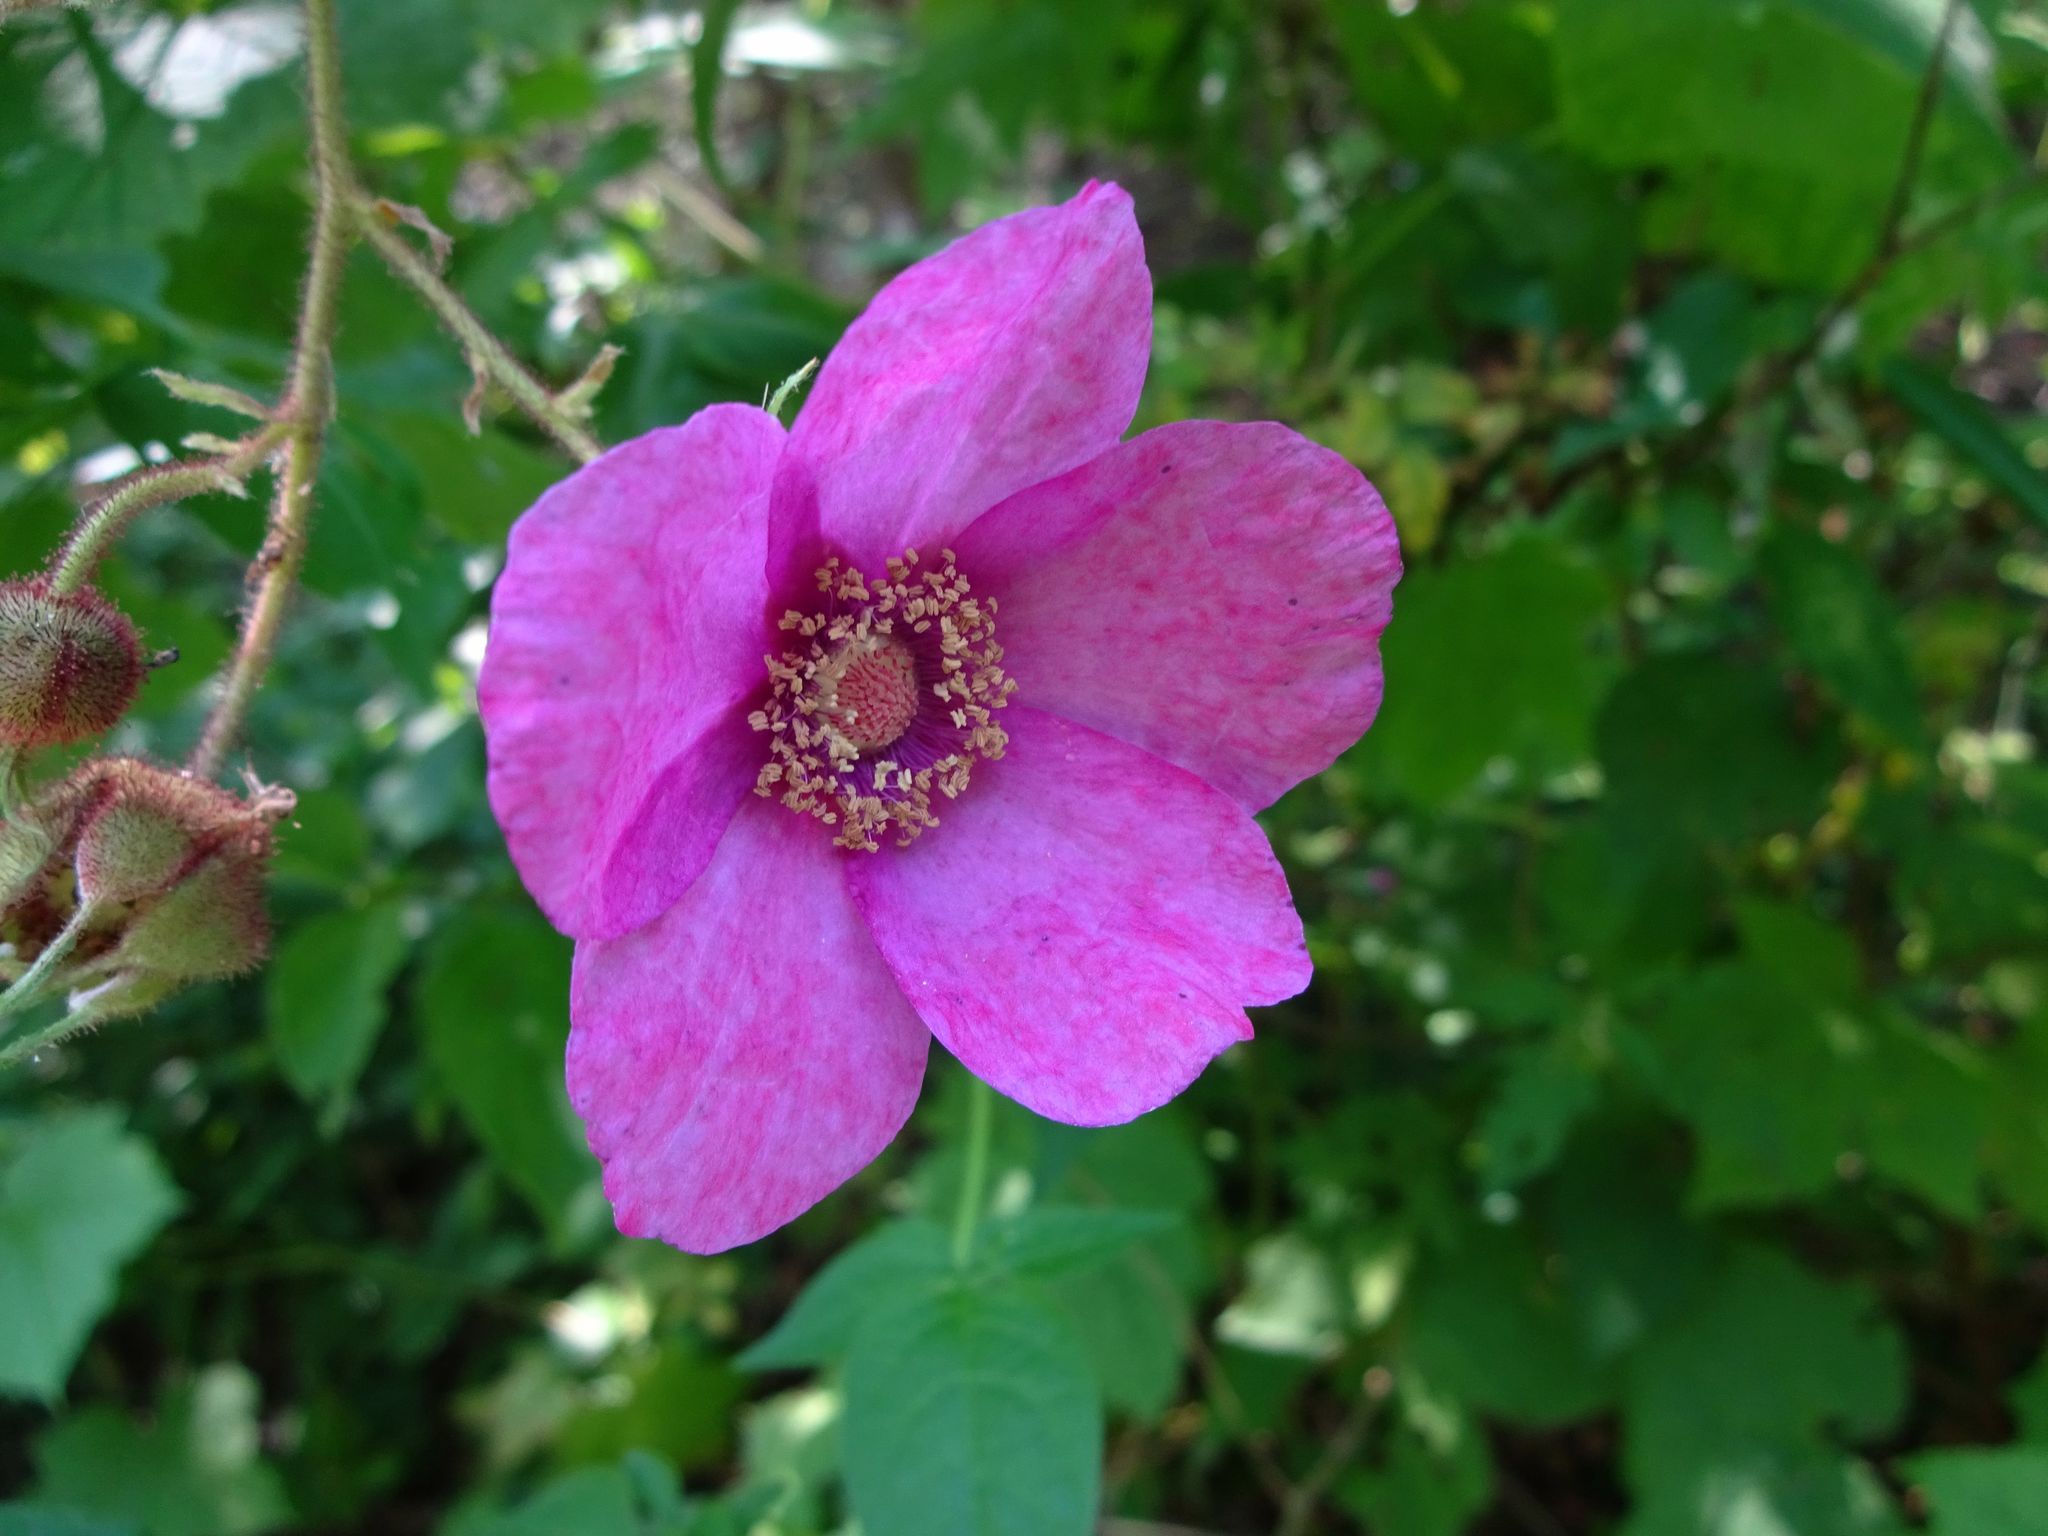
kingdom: Plantae
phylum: Tracheophyta
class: Magnoliopsida
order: Rosales
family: Rosaceae
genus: Rubus
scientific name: Rubus odoratus
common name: Purple-flowered raspberry
